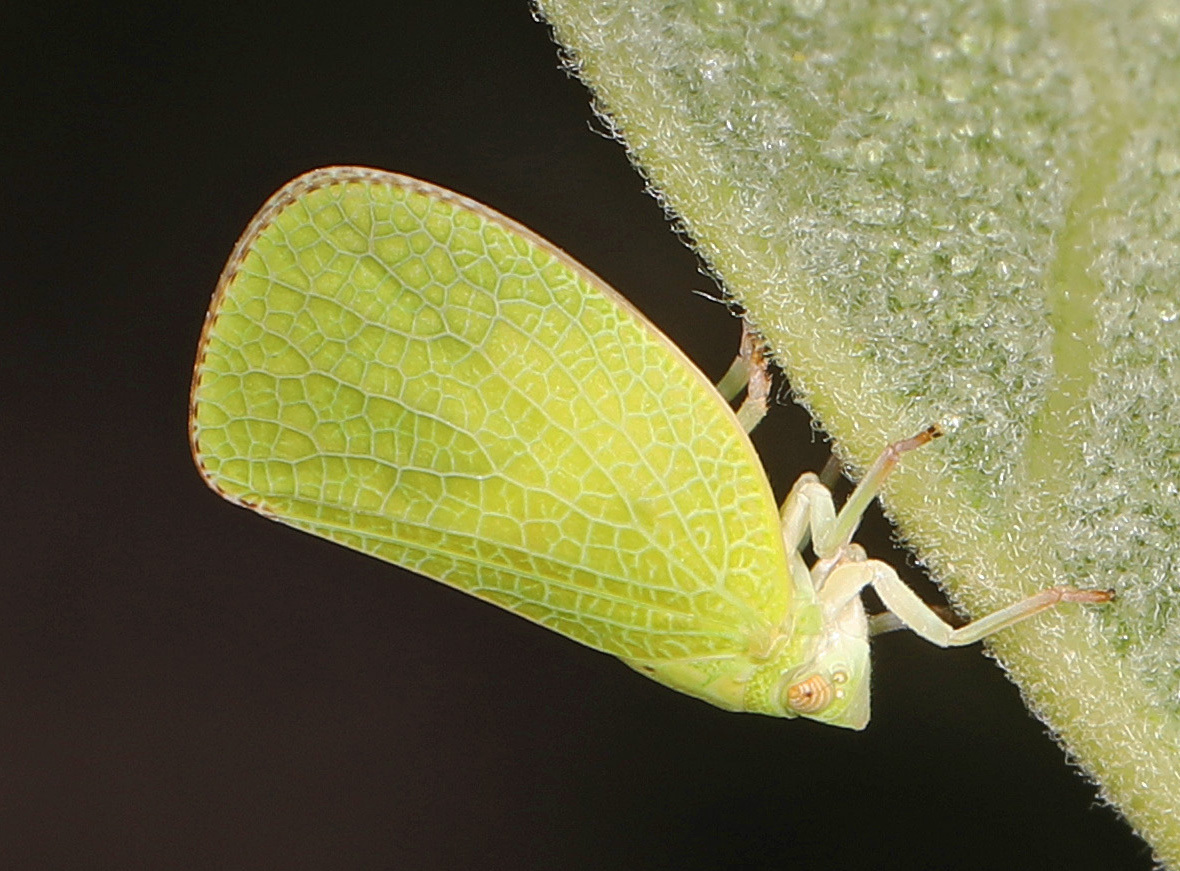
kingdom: Animalia
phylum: Arthropoda
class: Insecta
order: Hemiptera
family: Acanaloniidae
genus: Acanalonia
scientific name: Acanalonia conica
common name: Green cone-headed planthopper
